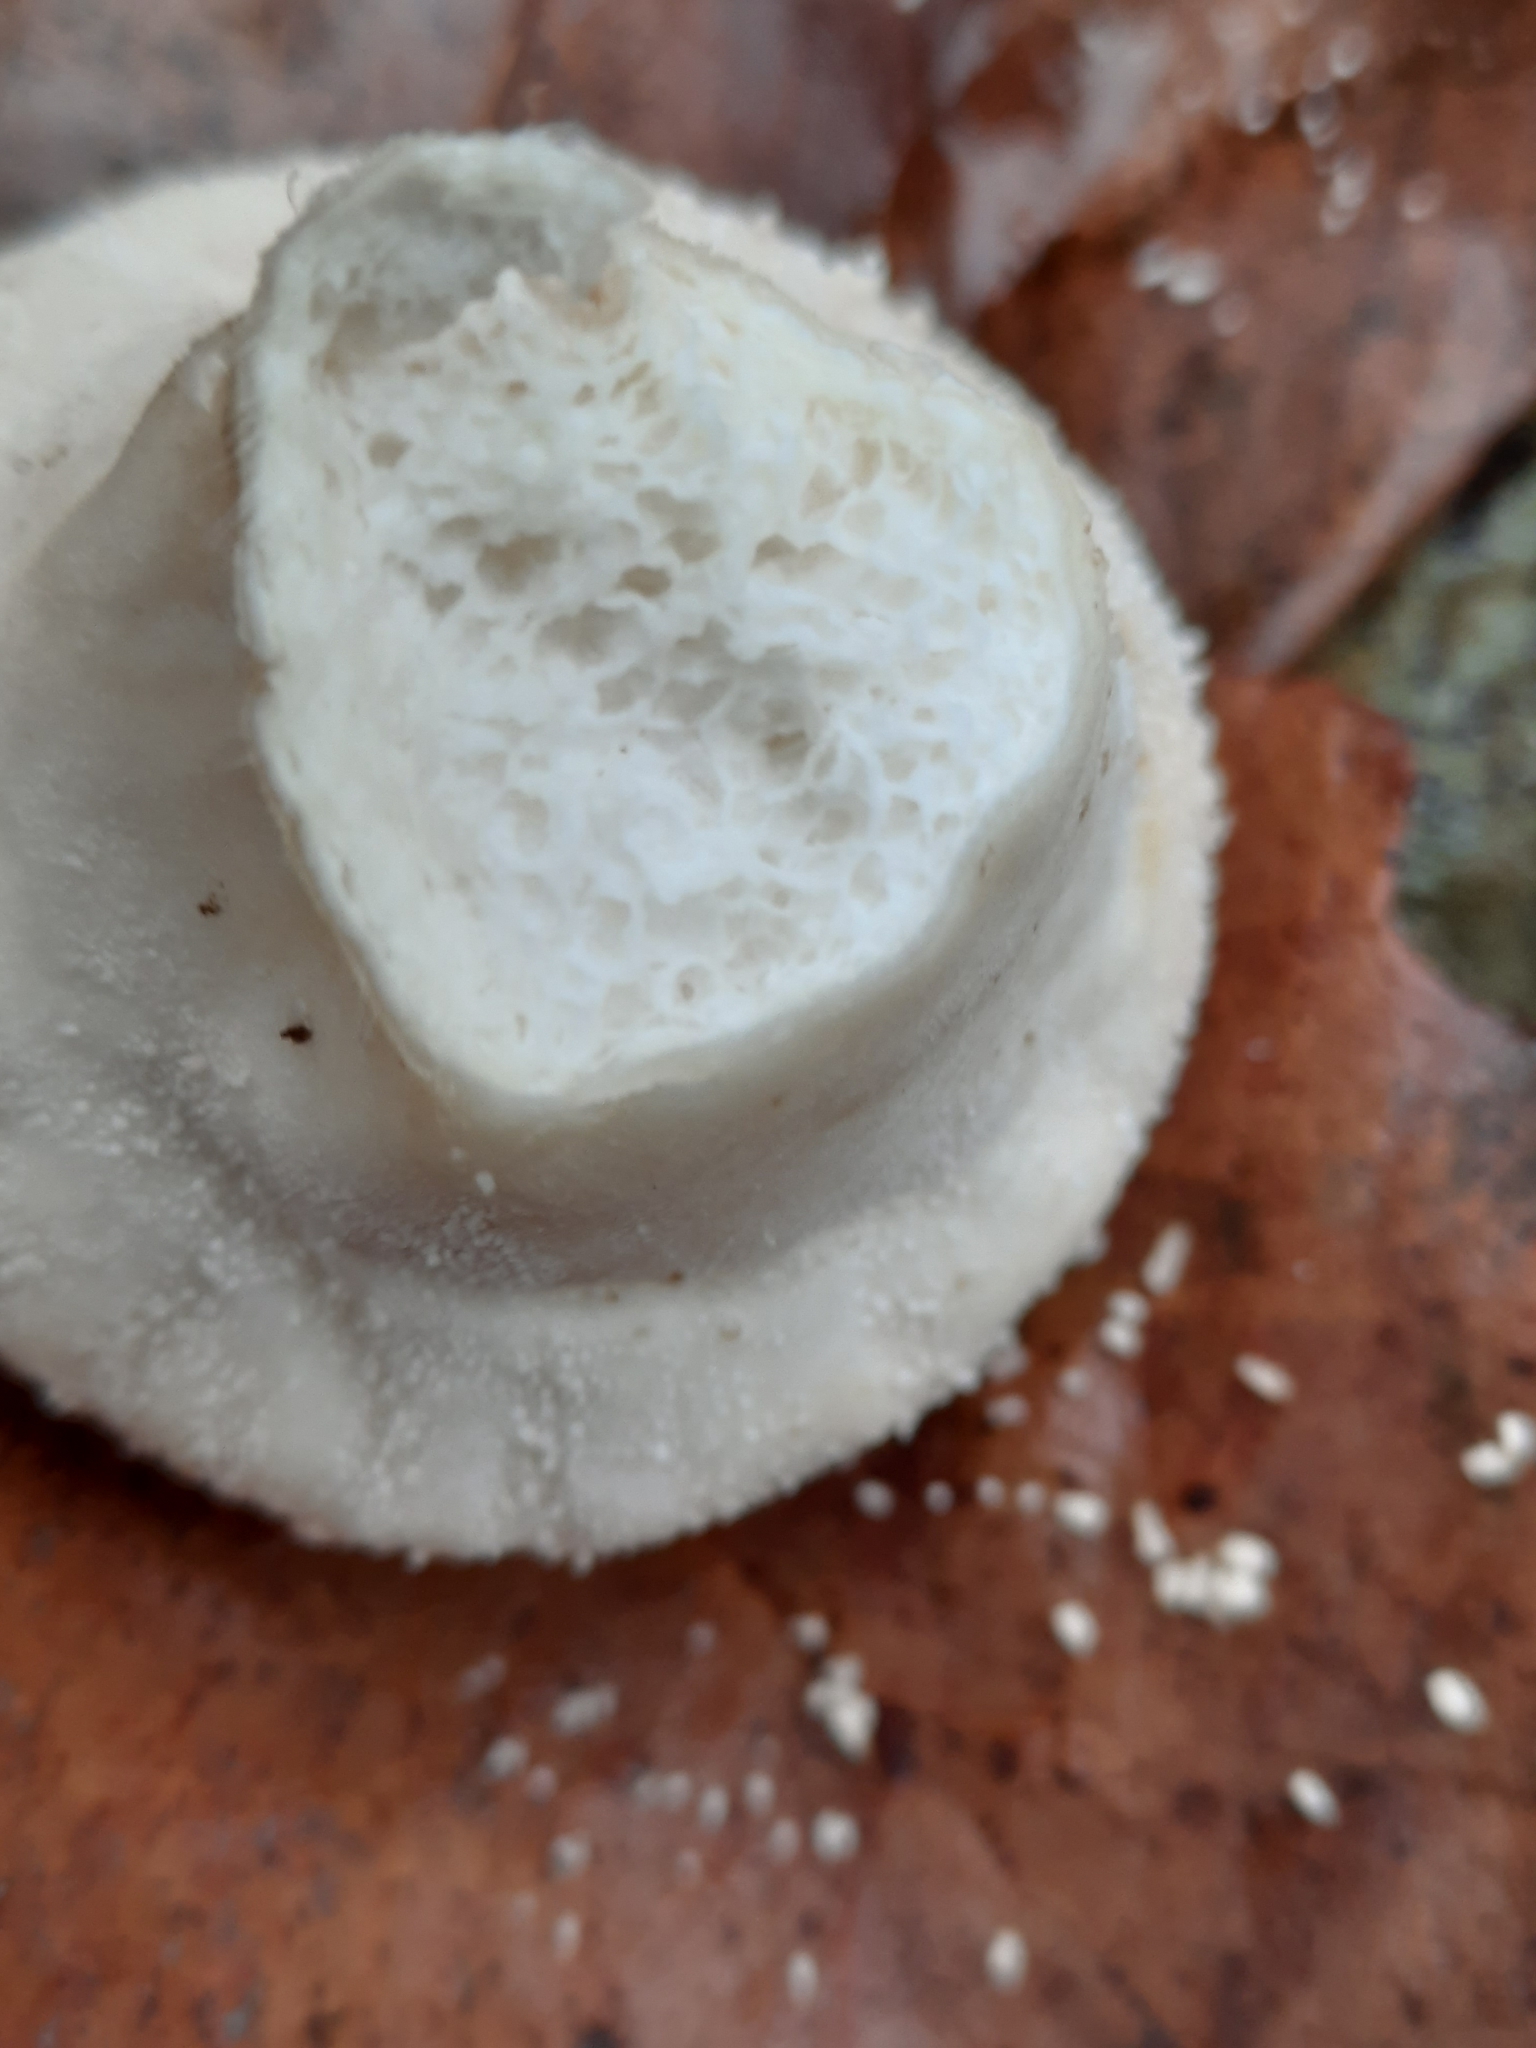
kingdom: Fungi
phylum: Basidiomycota
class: Agaricomycetes
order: Agaricales
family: Lycoperdaceae
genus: Lycoperdon
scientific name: Lycoperdon perlatum
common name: Common puffball
